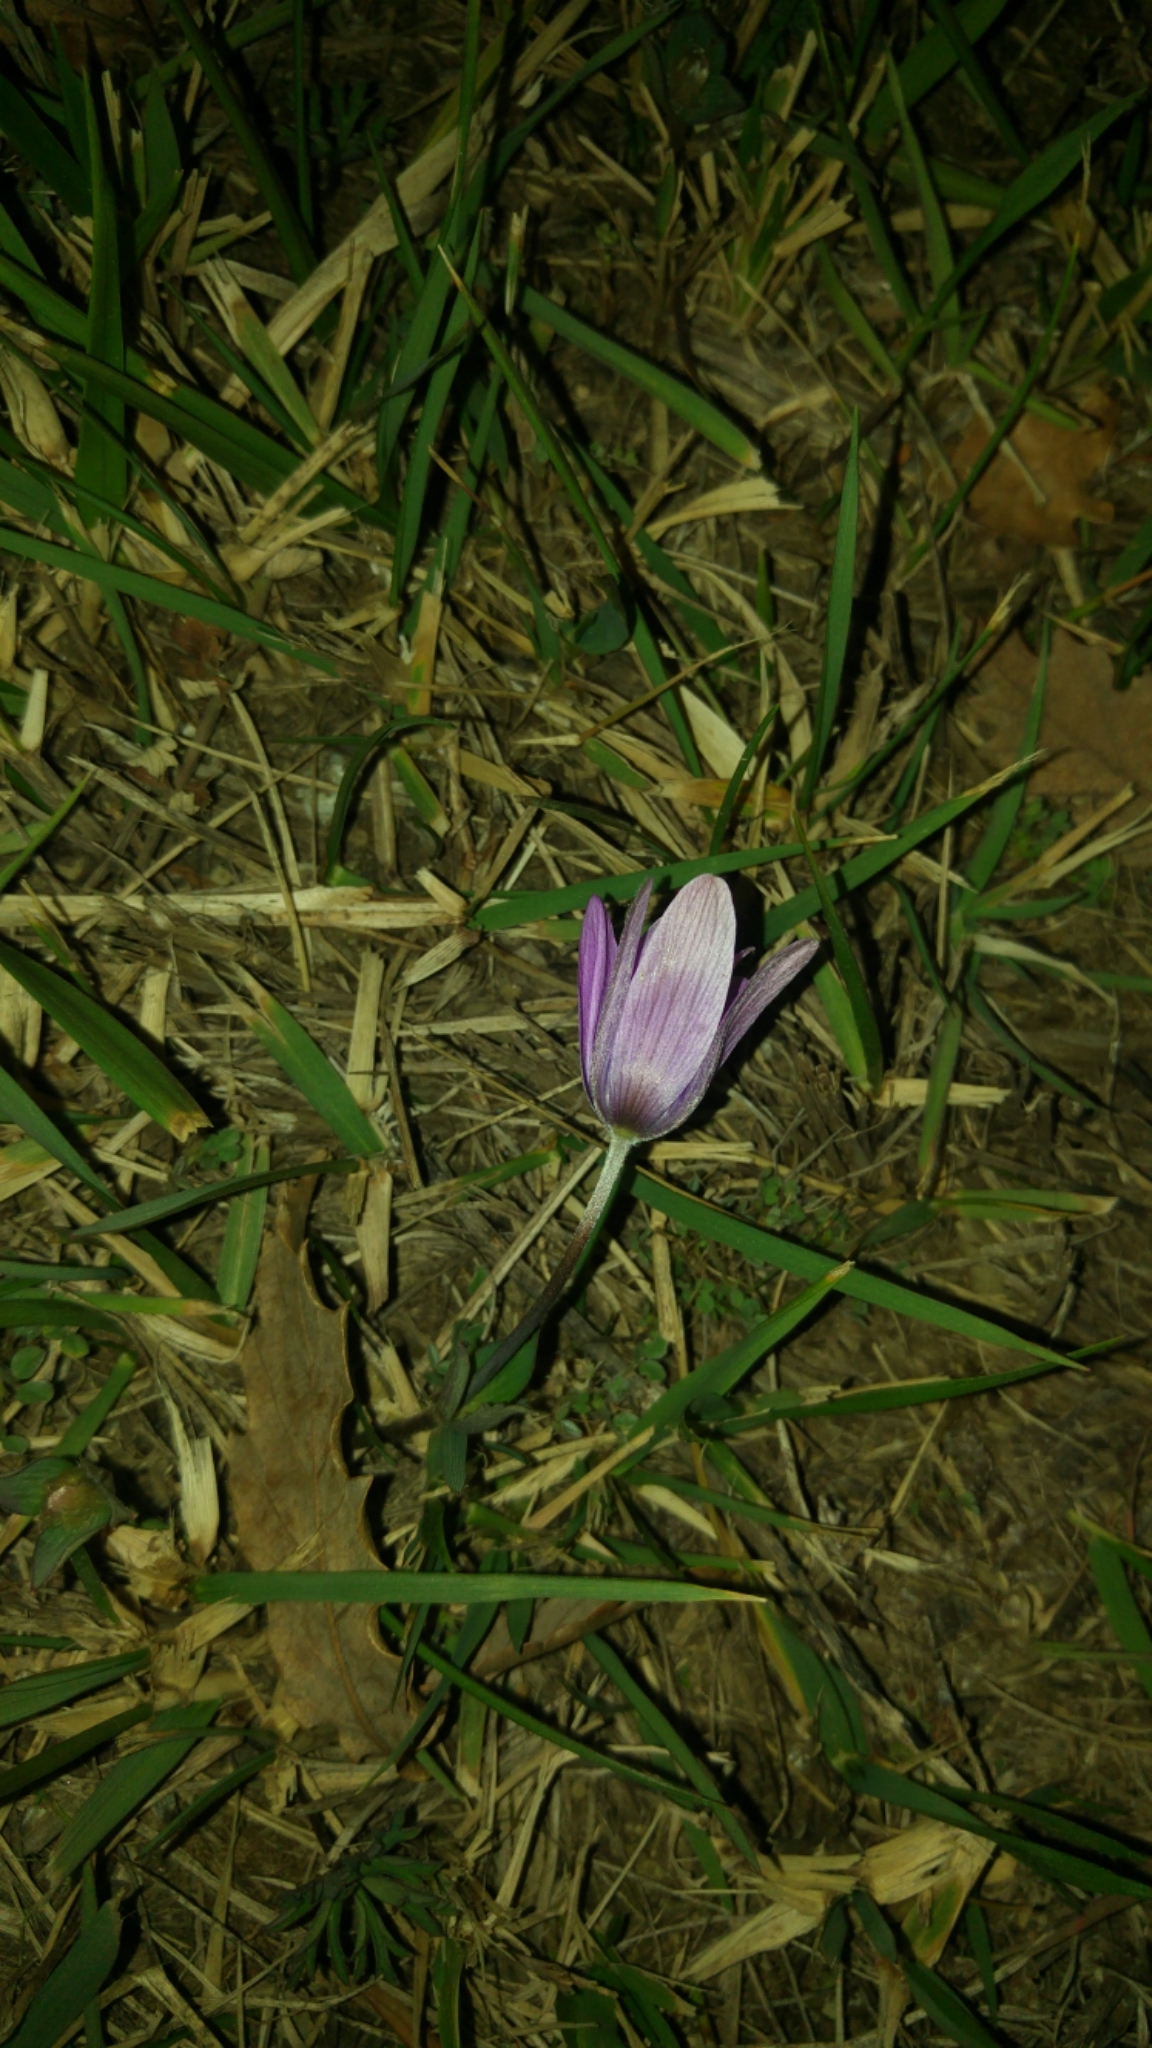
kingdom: Plantae
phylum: Tracheophyta
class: Magnoliopsida
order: Ranunculales
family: Ranunculaceae
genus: Anemone
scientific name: Anemone hortensis
